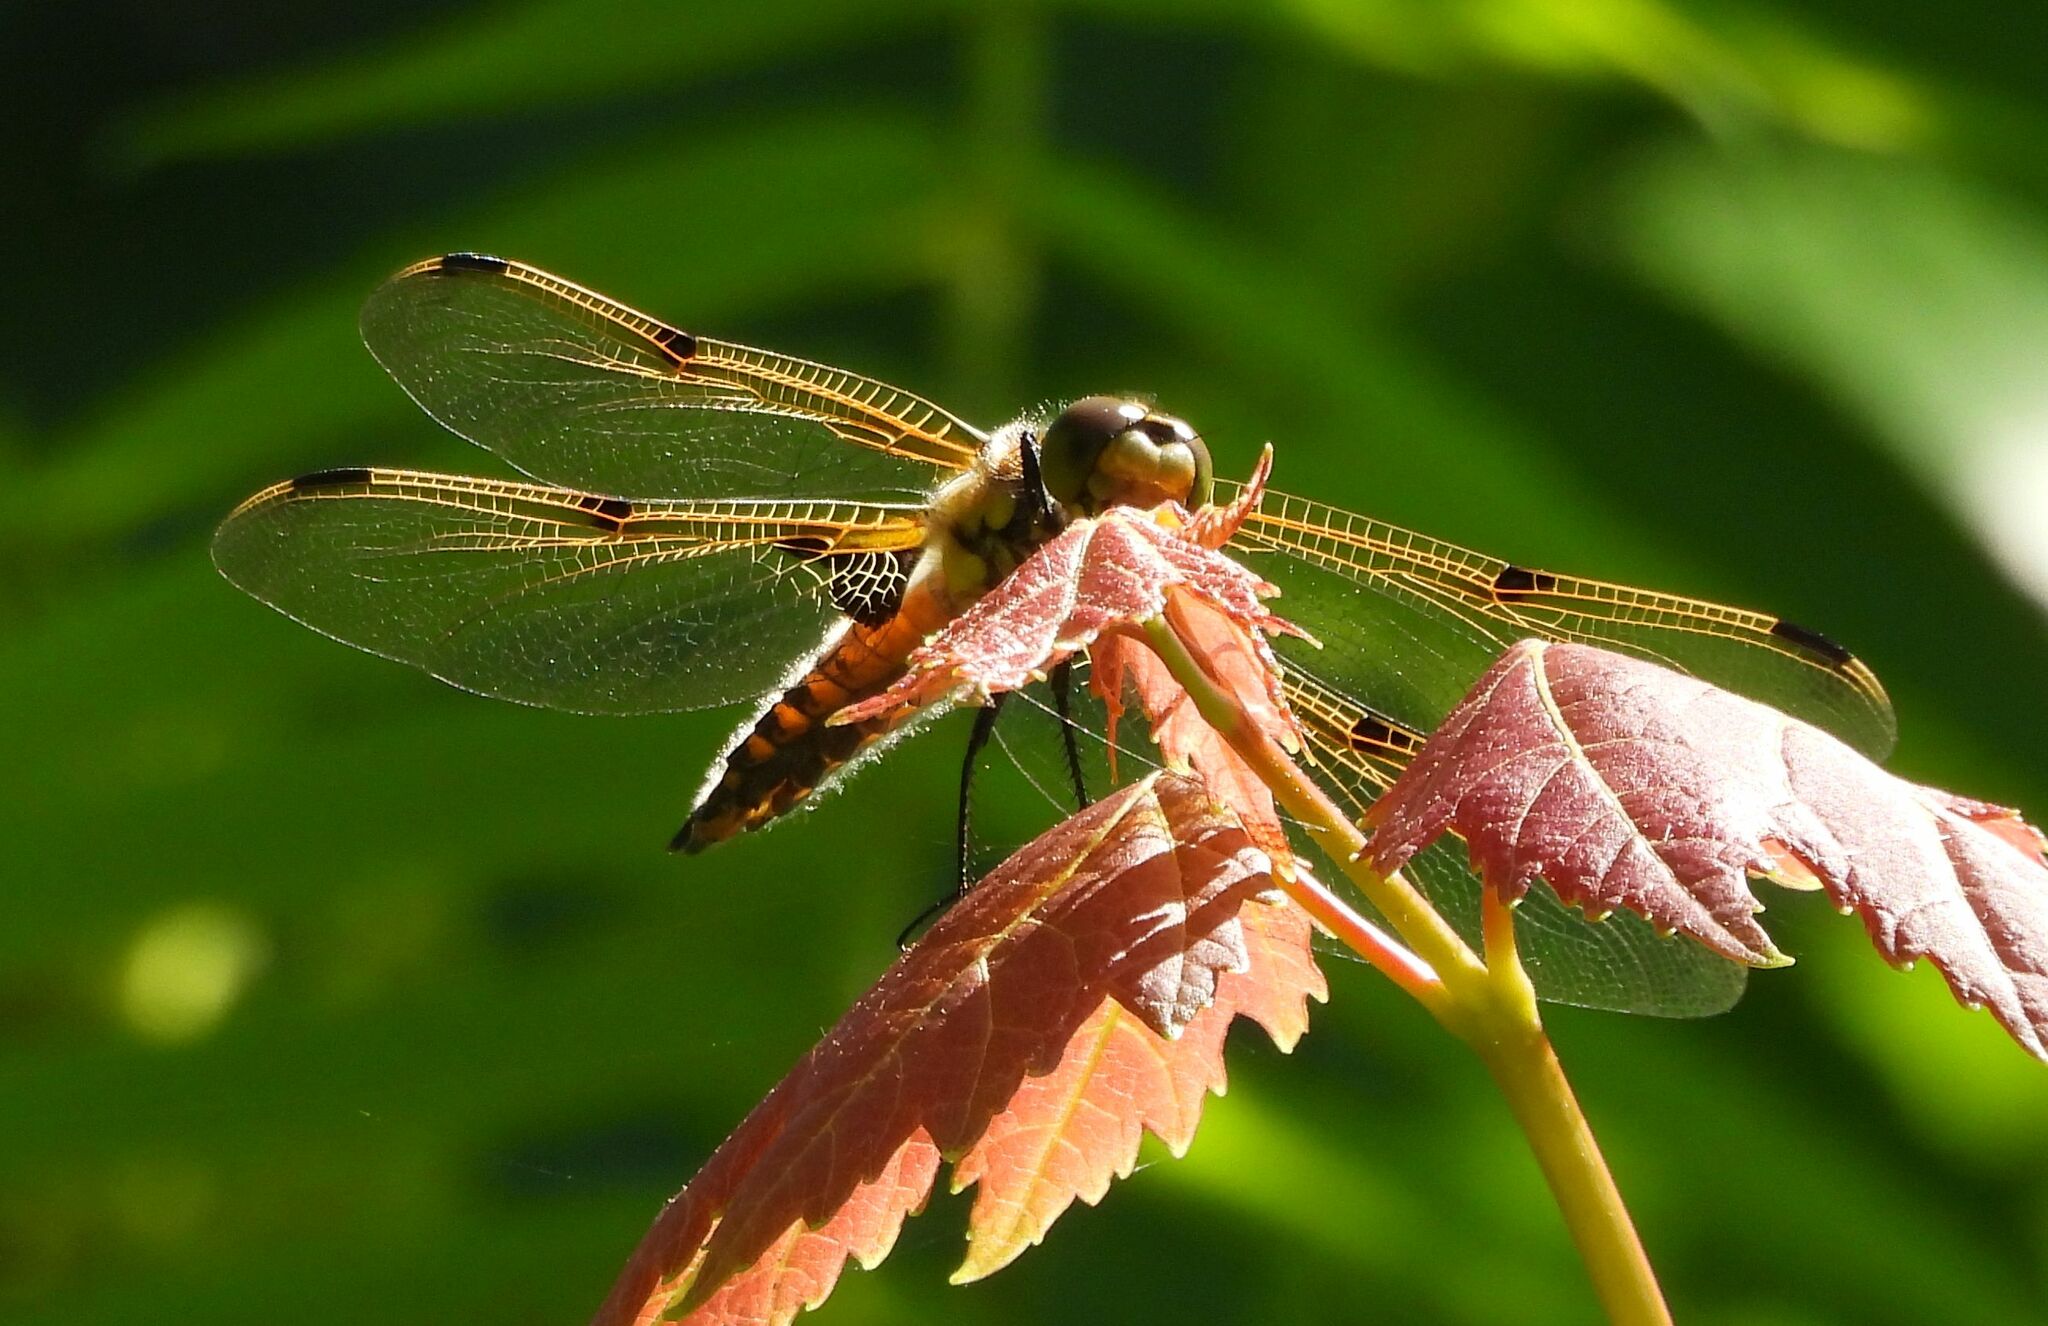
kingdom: Animalia
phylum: Arthropoda
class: Insecta
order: Odonata
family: Libellulidae
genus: Libellula
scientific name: Libellula quadrimaculata
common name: Four-spotted chaser
